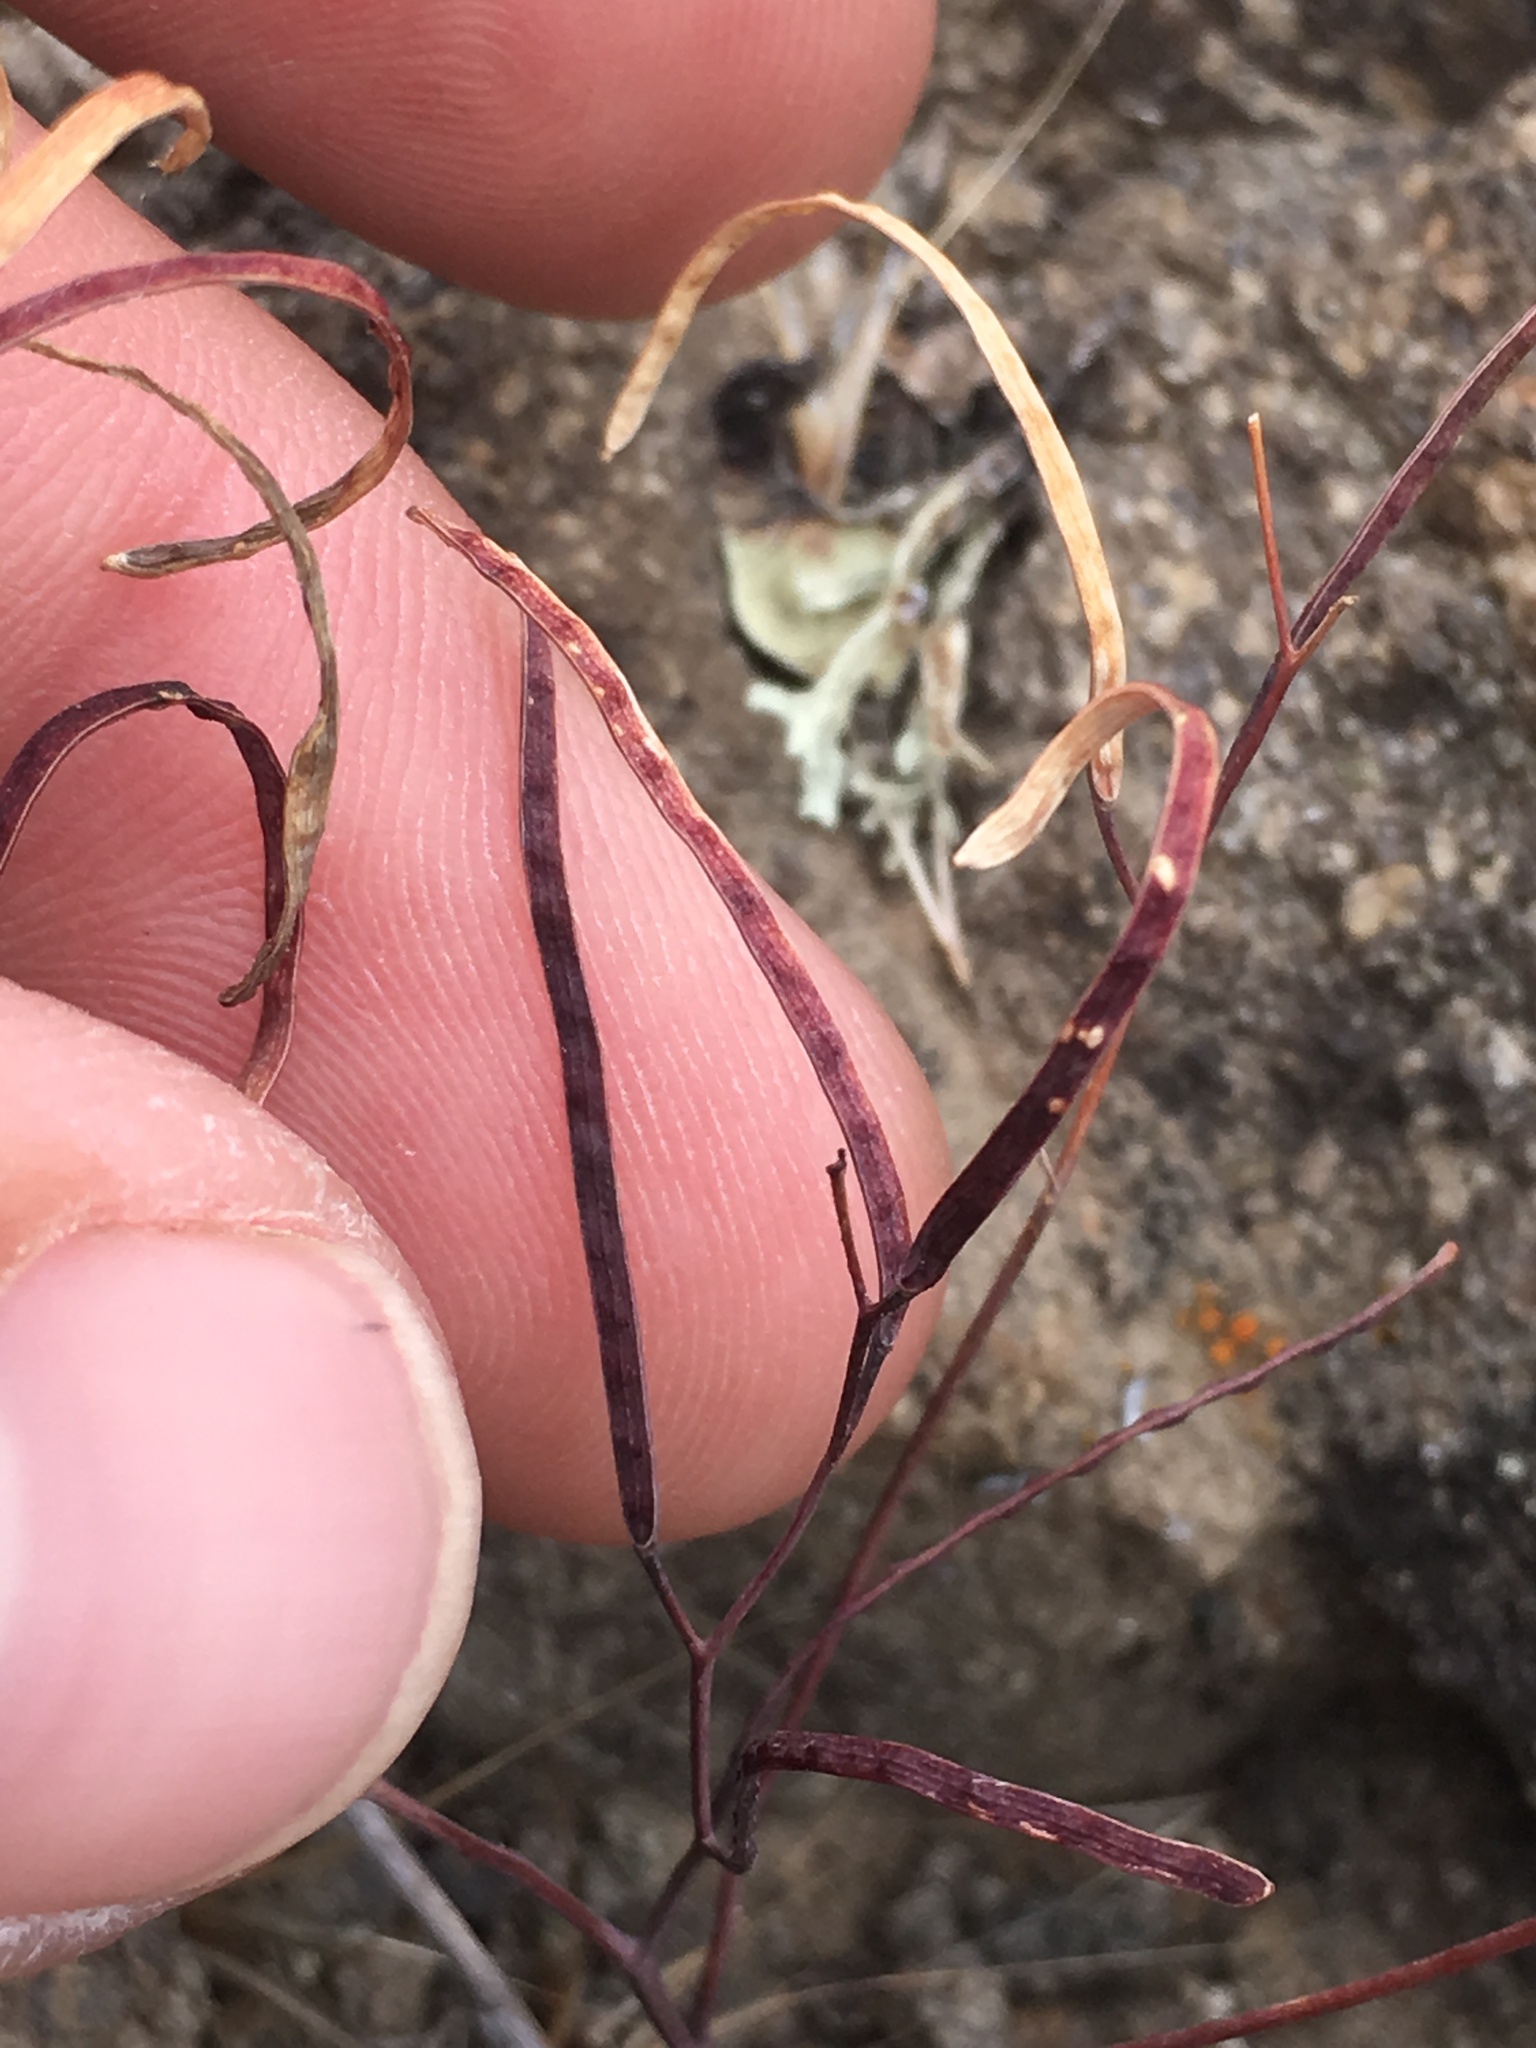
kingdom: Plantae
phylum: Tracheophyta
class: Magnoliopsida
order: Brassicales
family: Brassicaceae
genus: Sibara
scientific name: Sibara filifolia
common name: Santa cruz island-rockcress
